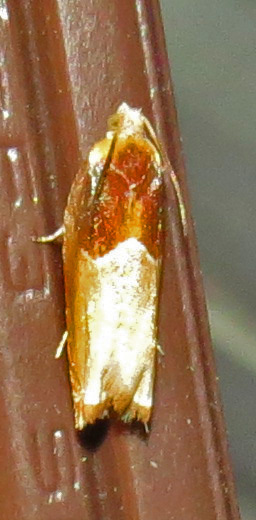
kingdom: Animalia
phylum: Arthropoda
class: Insecta
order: Lepidoptera
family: Tortricidae
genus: Ancylis
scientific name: Ancylis divisana
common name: Two-toned ancylis moth
